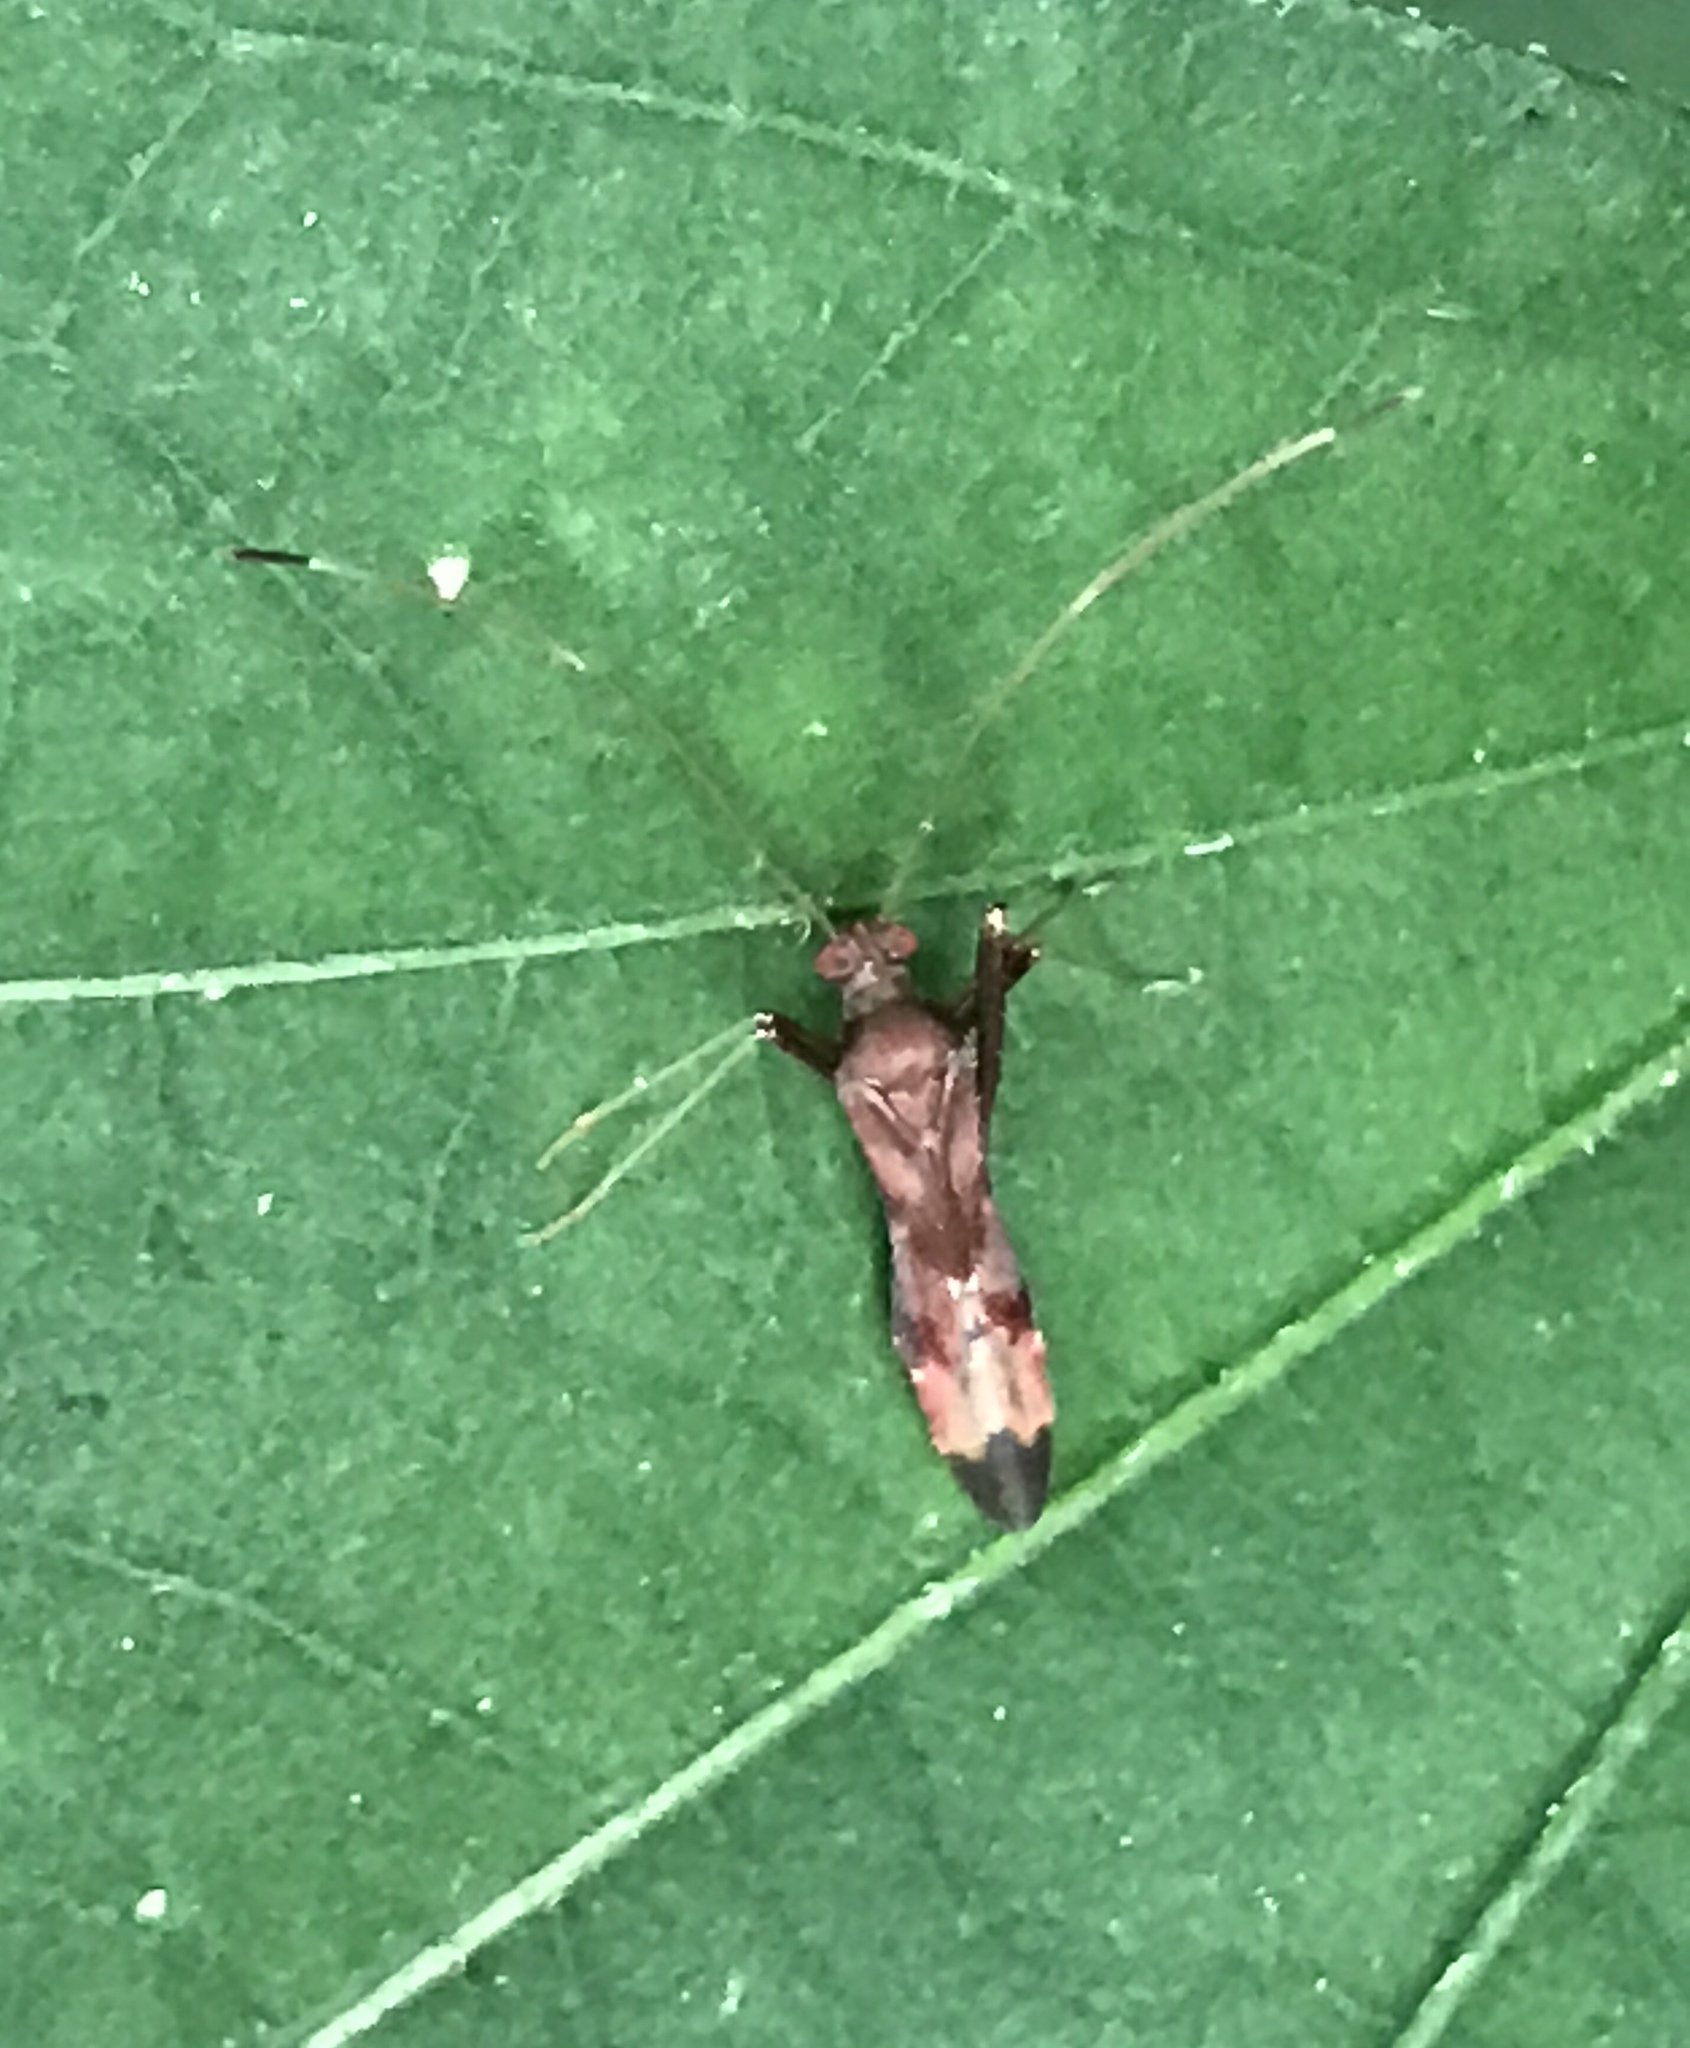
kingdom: Animalia
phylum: Arthropoda
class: Insecta
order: Hemiptera
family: Miridae
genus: Paraxenetus
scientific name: Paraxenetus guttulatus
